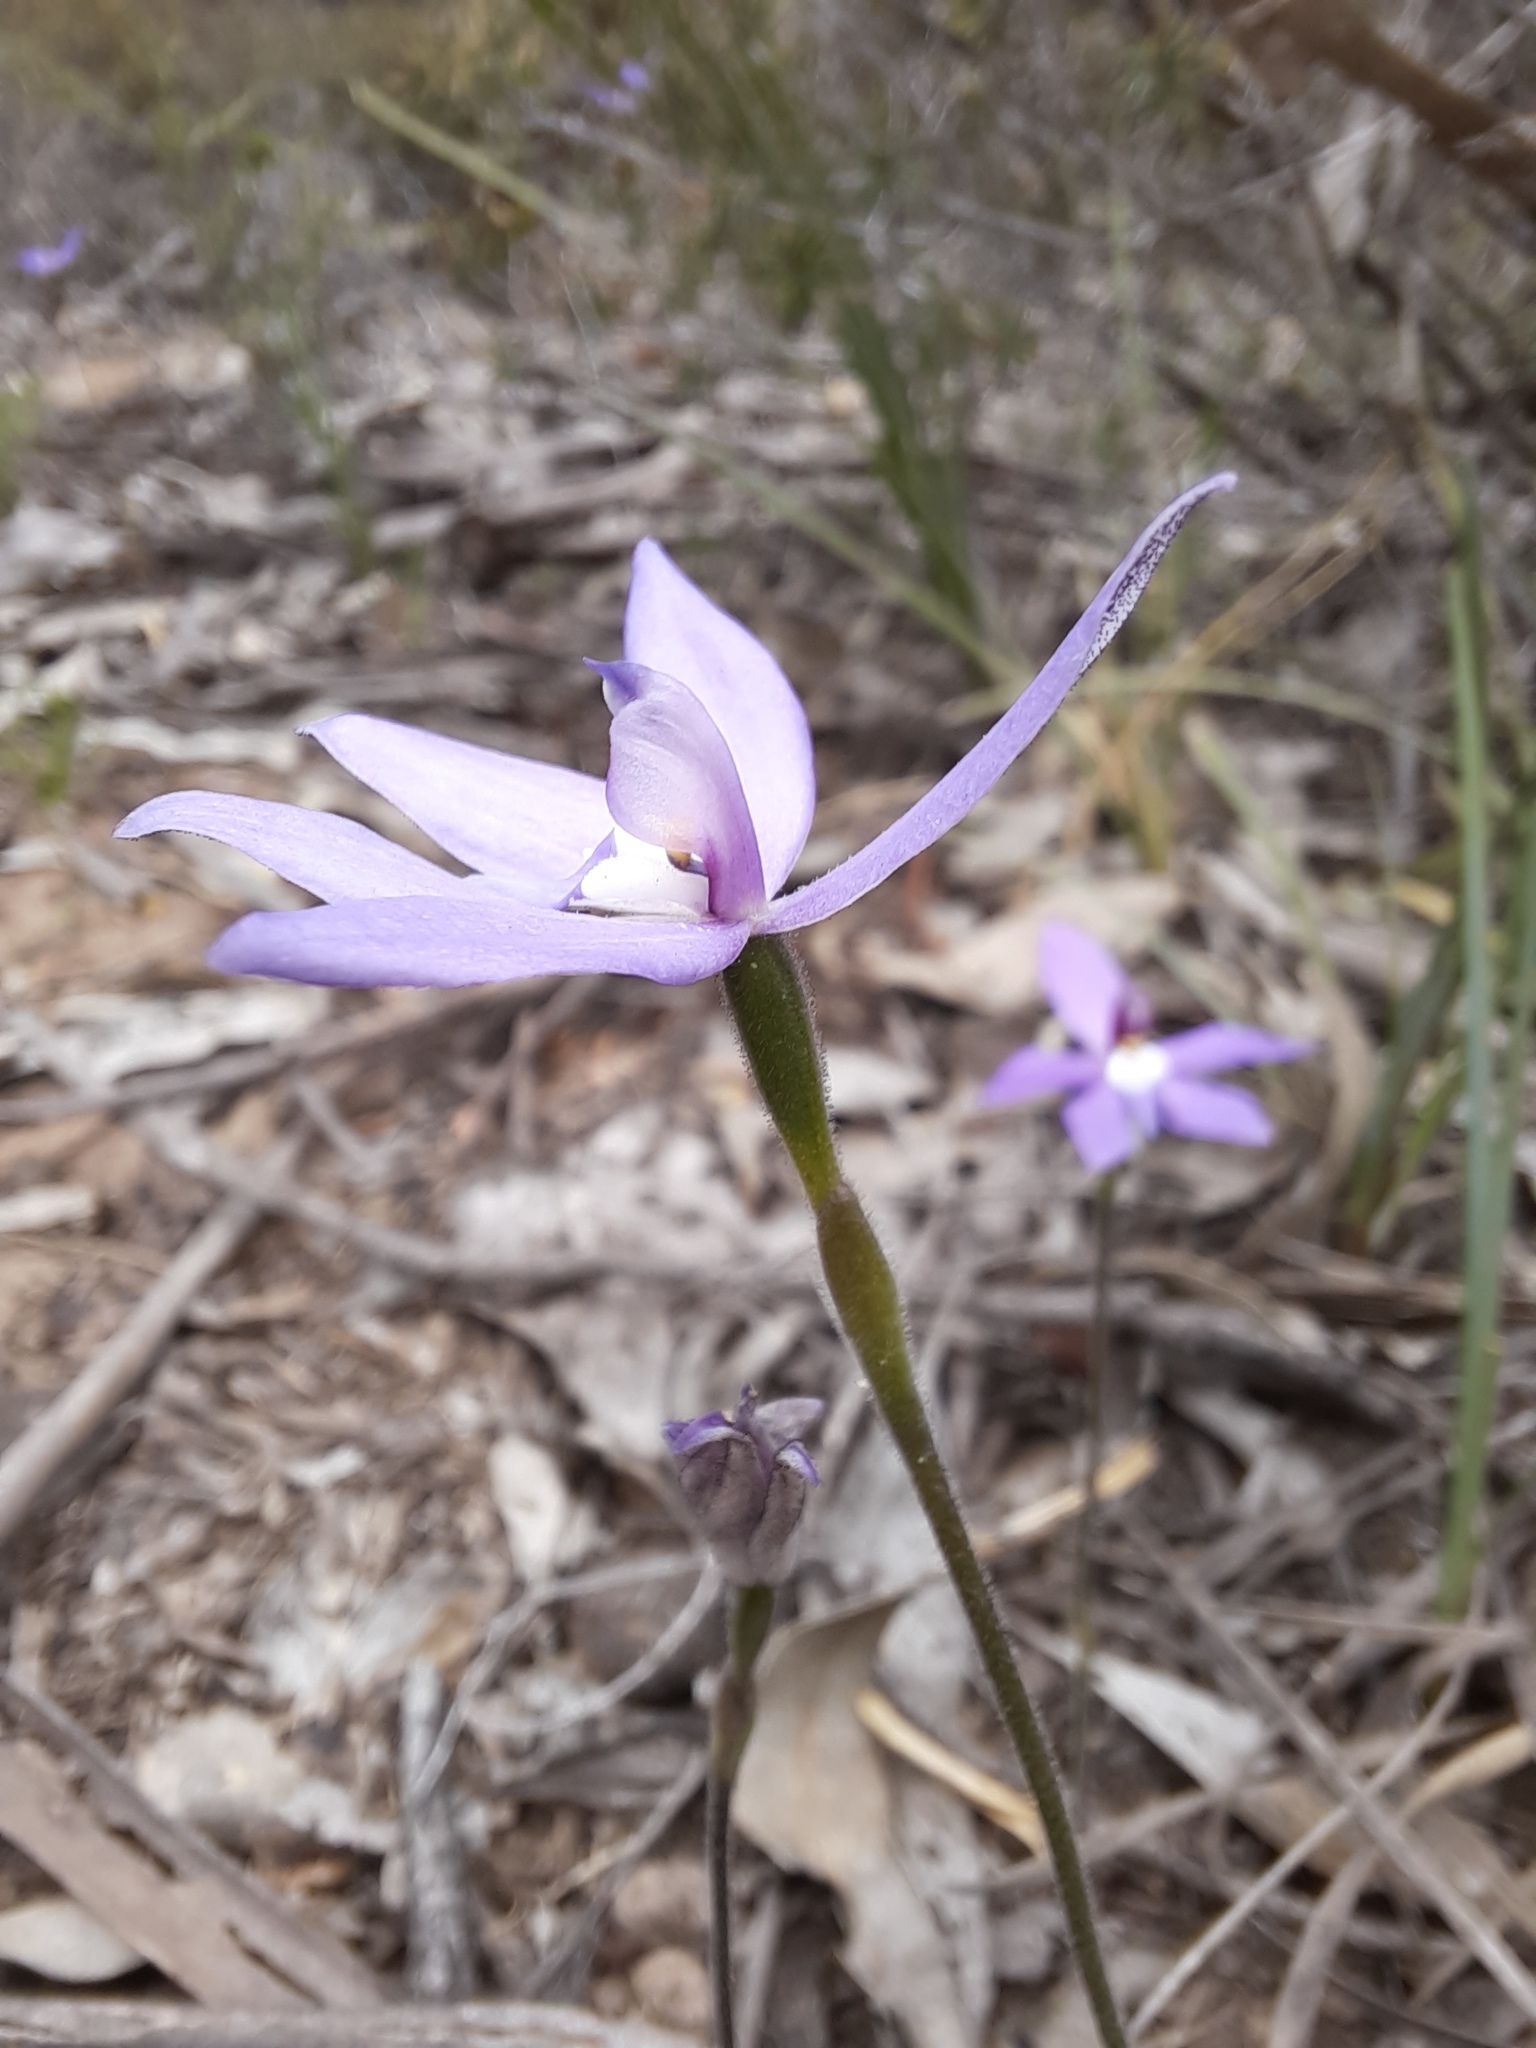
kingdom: Plantae
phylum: Tracheophyta
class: Liliopsida
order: Asparagales
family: Orchidaceae
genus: Caladenia
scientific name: Caladenia major
